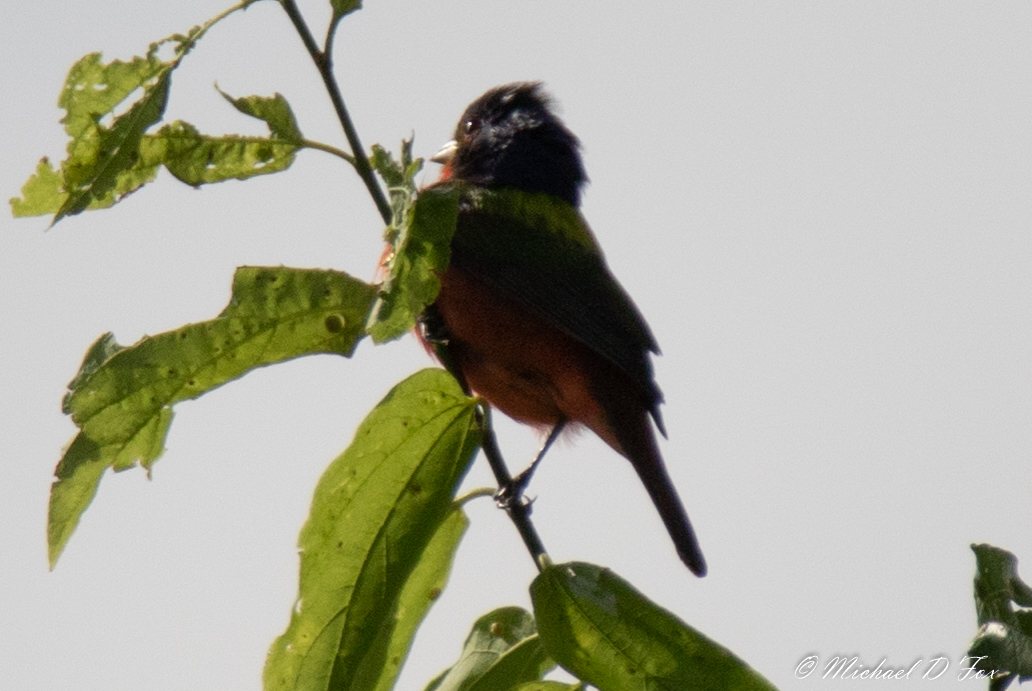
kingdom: Animalia
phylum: Chordata
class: Aves
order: Passeriformes
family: Cardinalidae
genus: Passerina
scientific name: Passerina ciris
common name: Painted bunting
